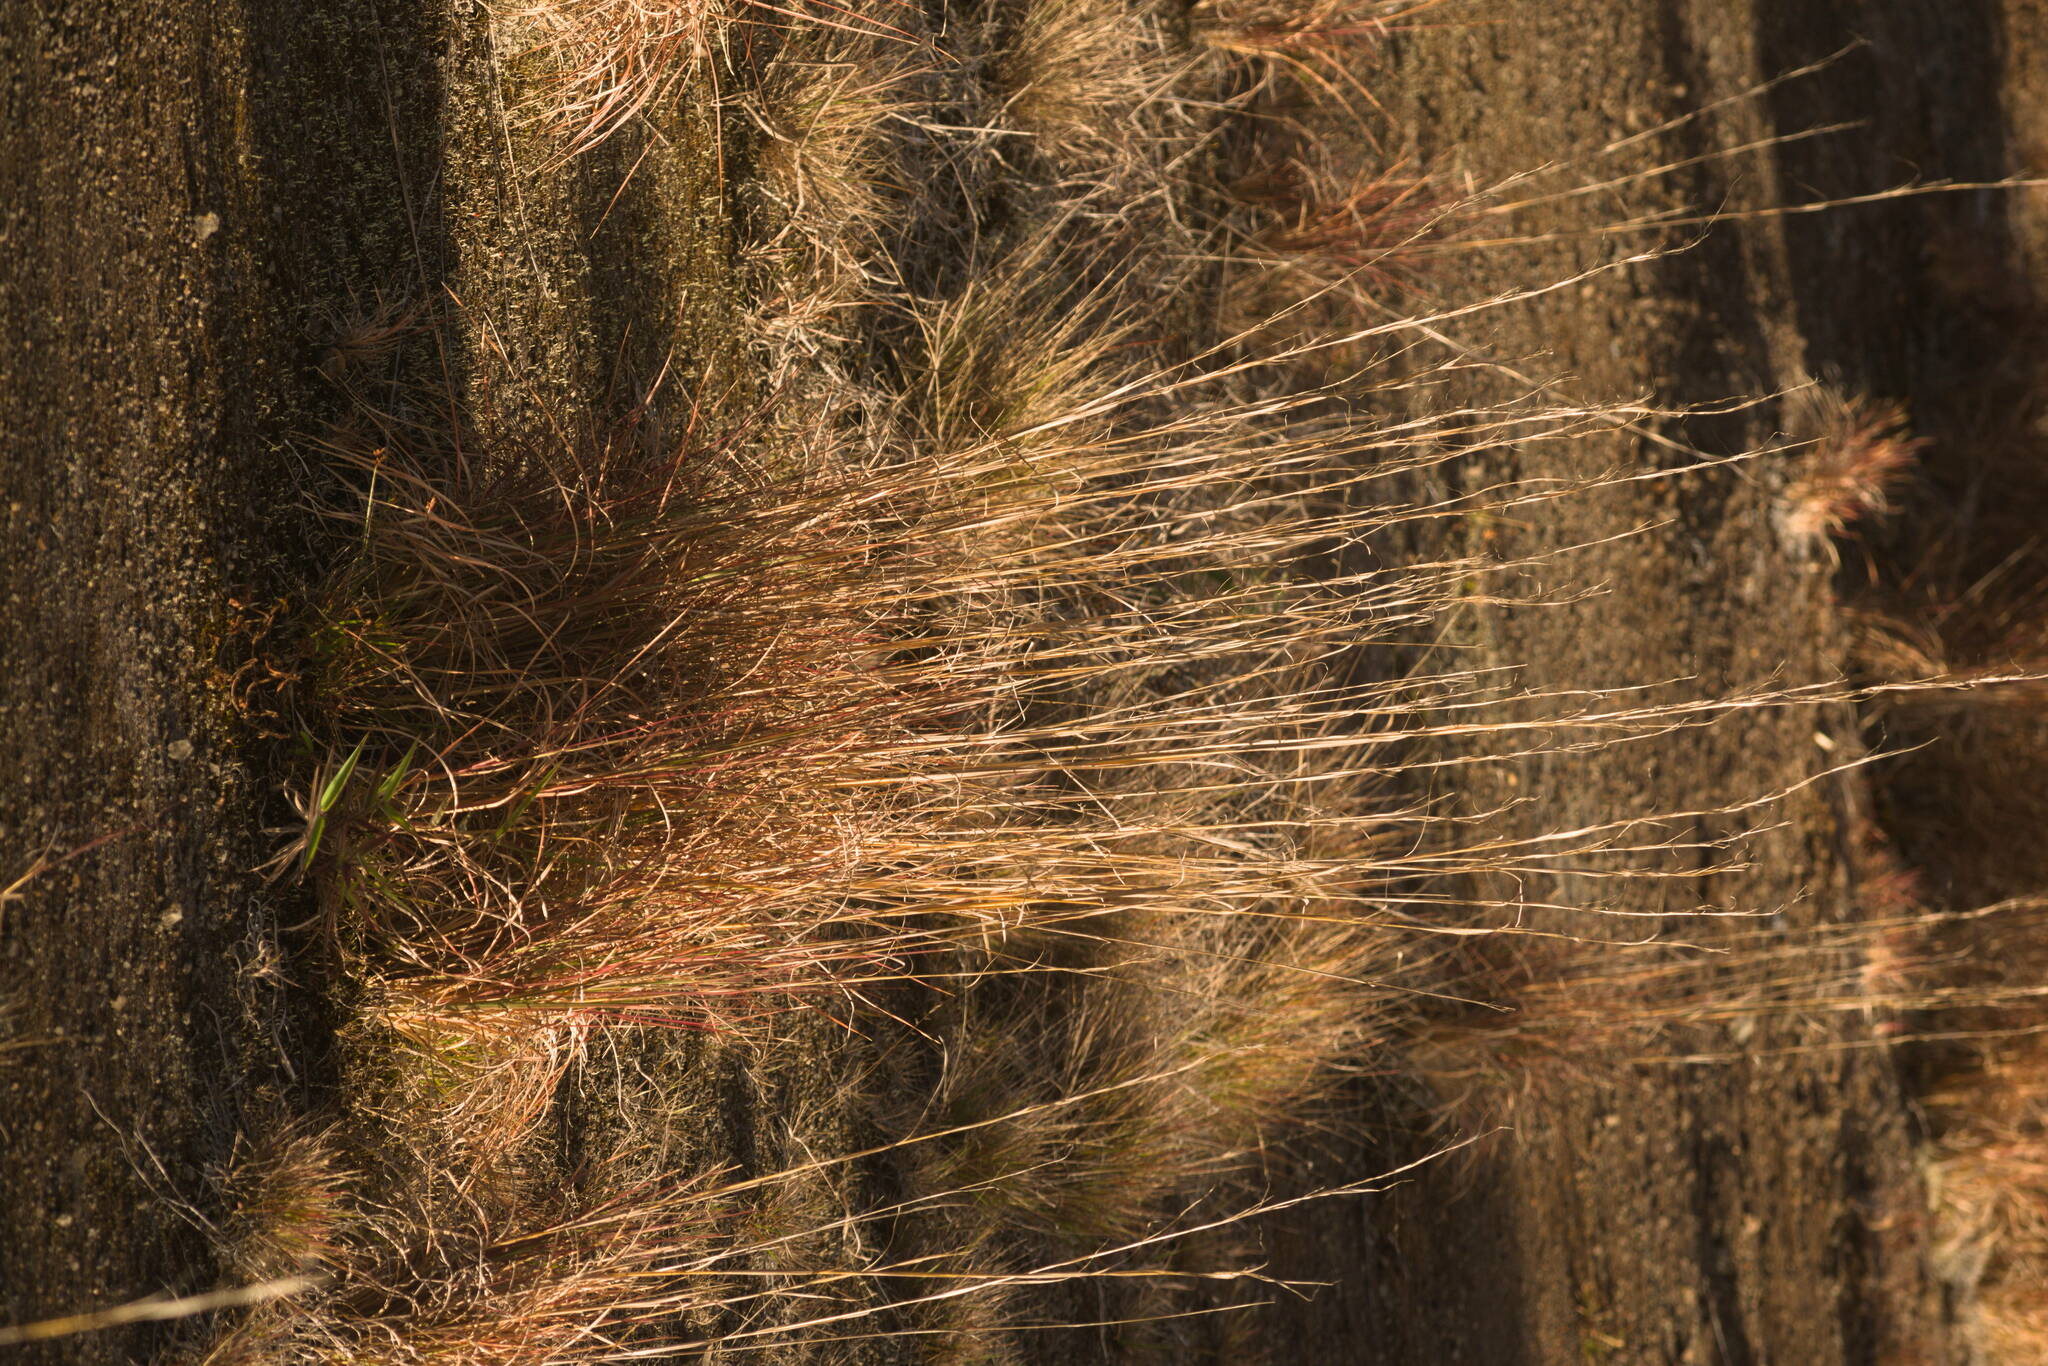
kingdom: Plantae
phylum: Tracheophyta
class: Liliopsida
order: Poales
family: Poaceae
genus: Andropogon
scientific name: Andropogon virginicus
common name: Broomsedge bluestem
